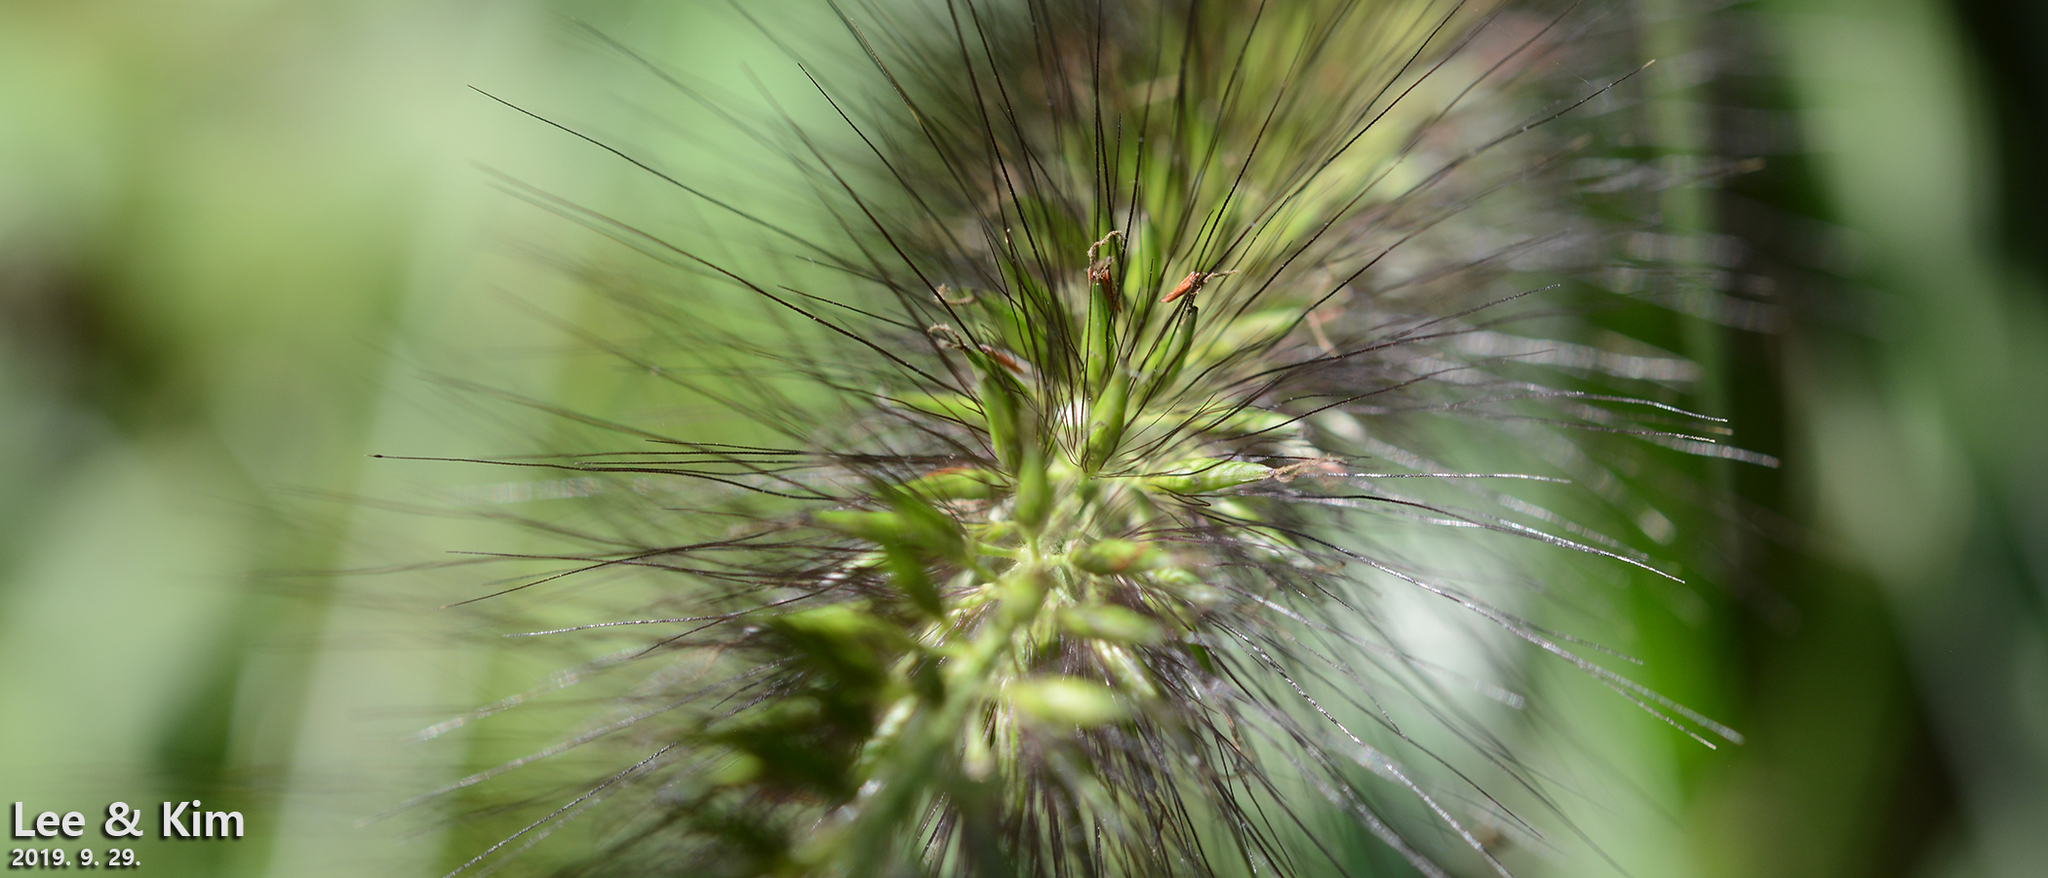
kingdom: Plantae
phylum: Tracheophyta
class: Liliopsida
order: Poales
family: Poaceae
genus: Cenchrus
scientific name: Cenchrus alopecuroides
